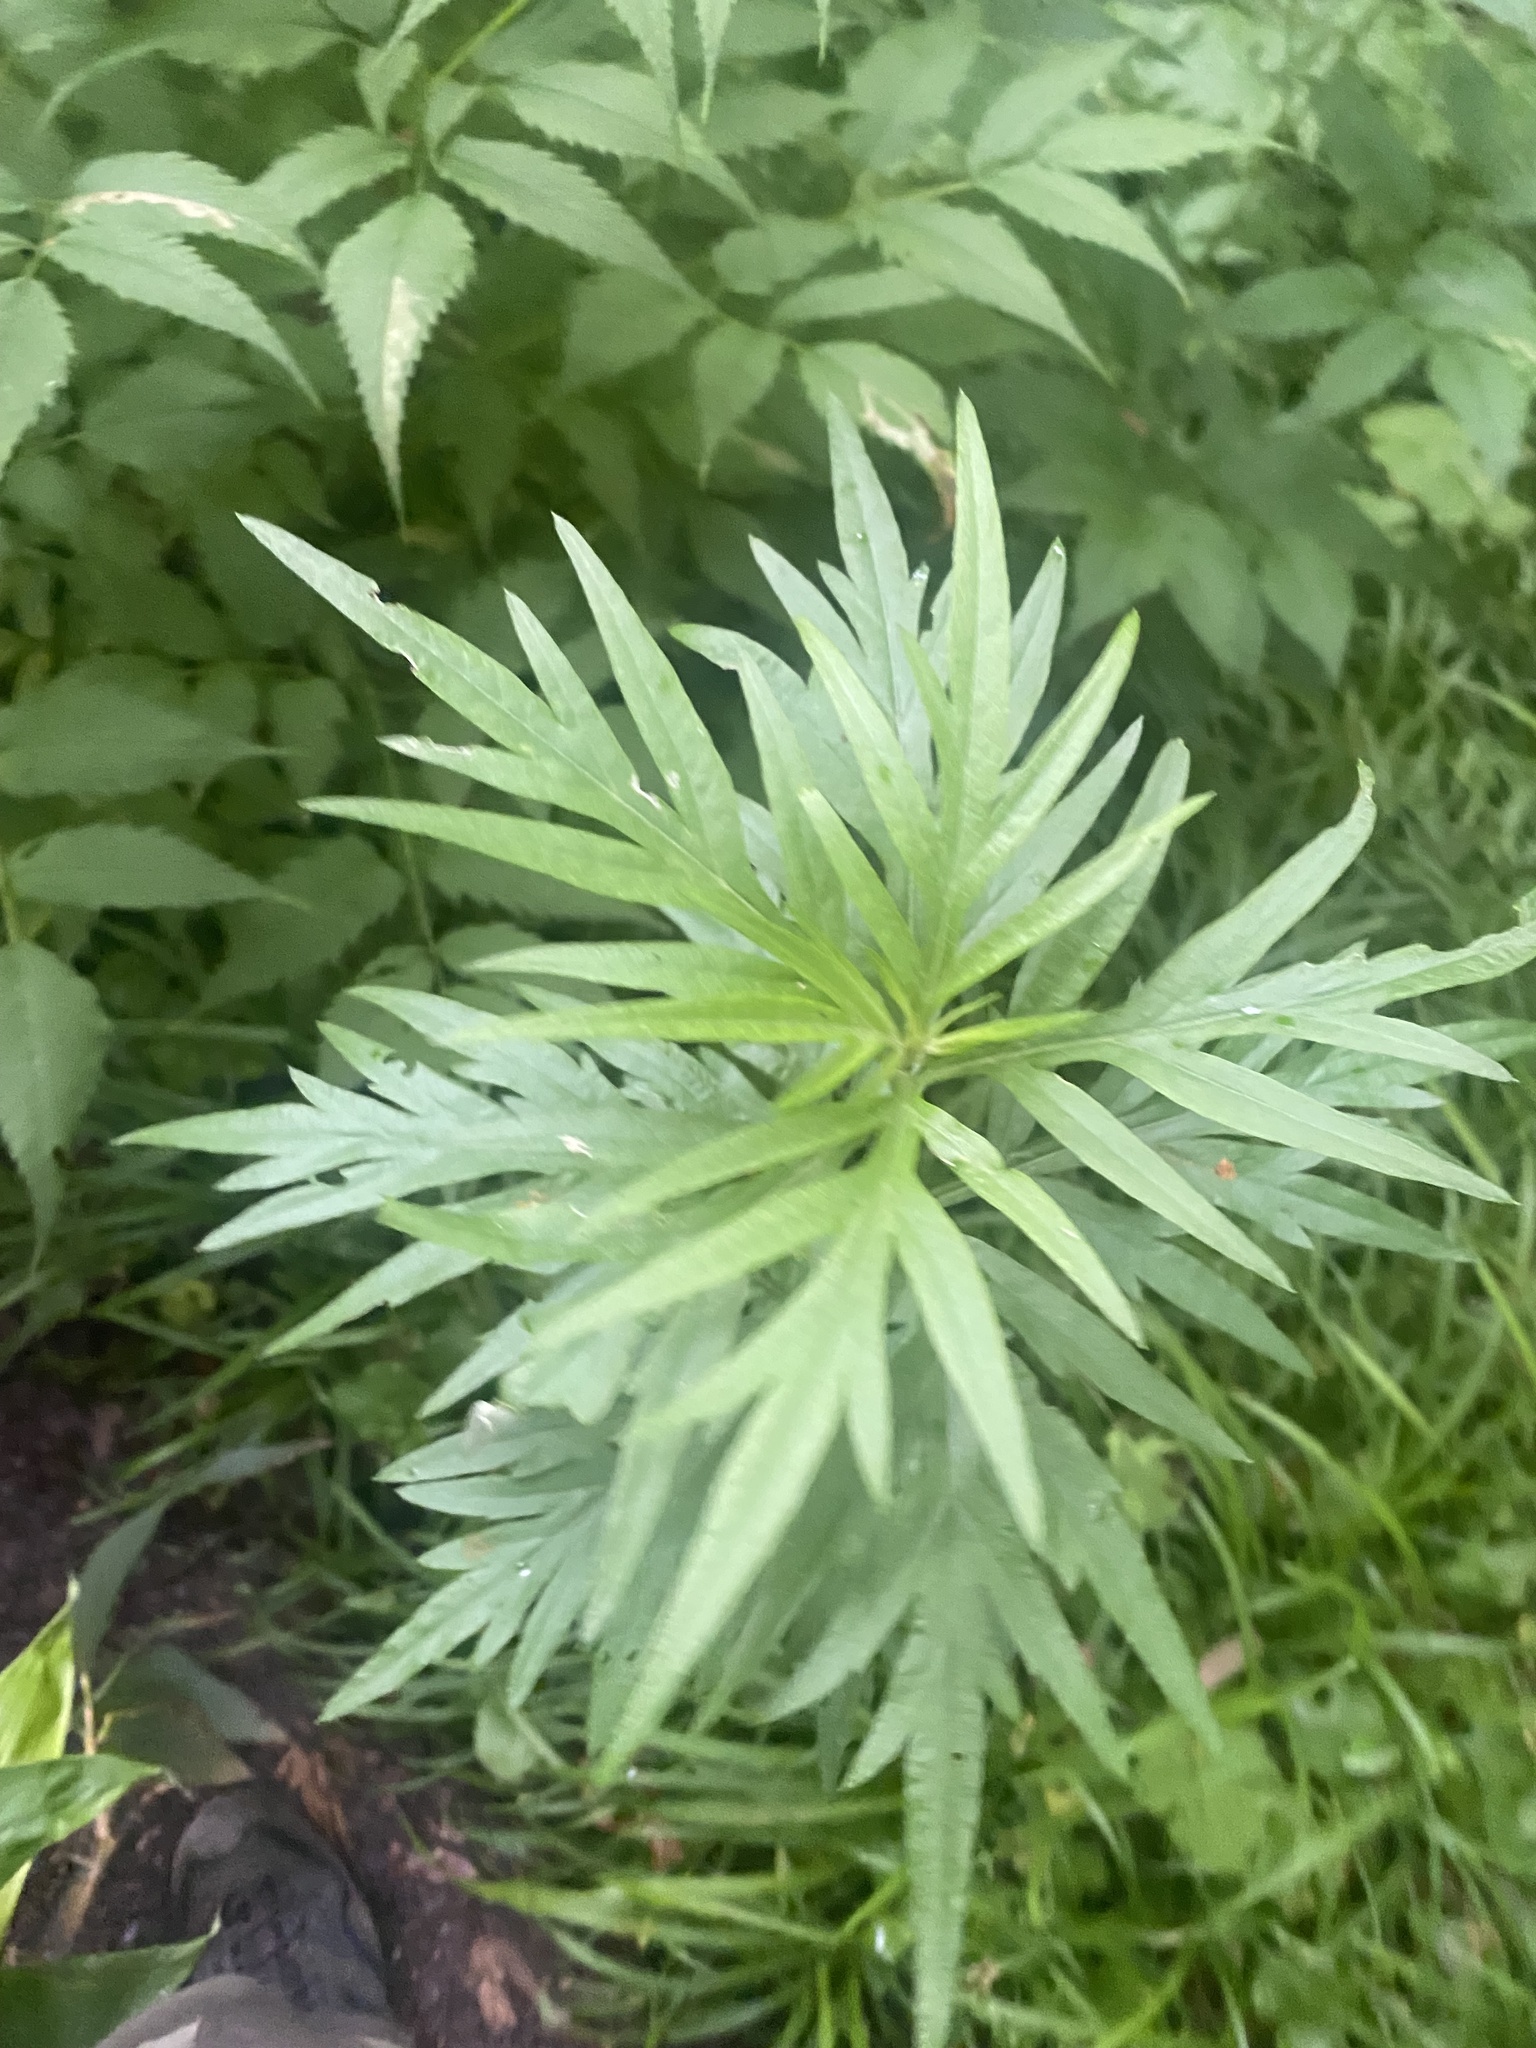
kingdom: Plantae
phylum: Tracheophyta
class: Magnoliopsida
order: Asterales
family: Asteraceae
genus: Jacobaea
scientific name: Jacobaea cannabifolia
